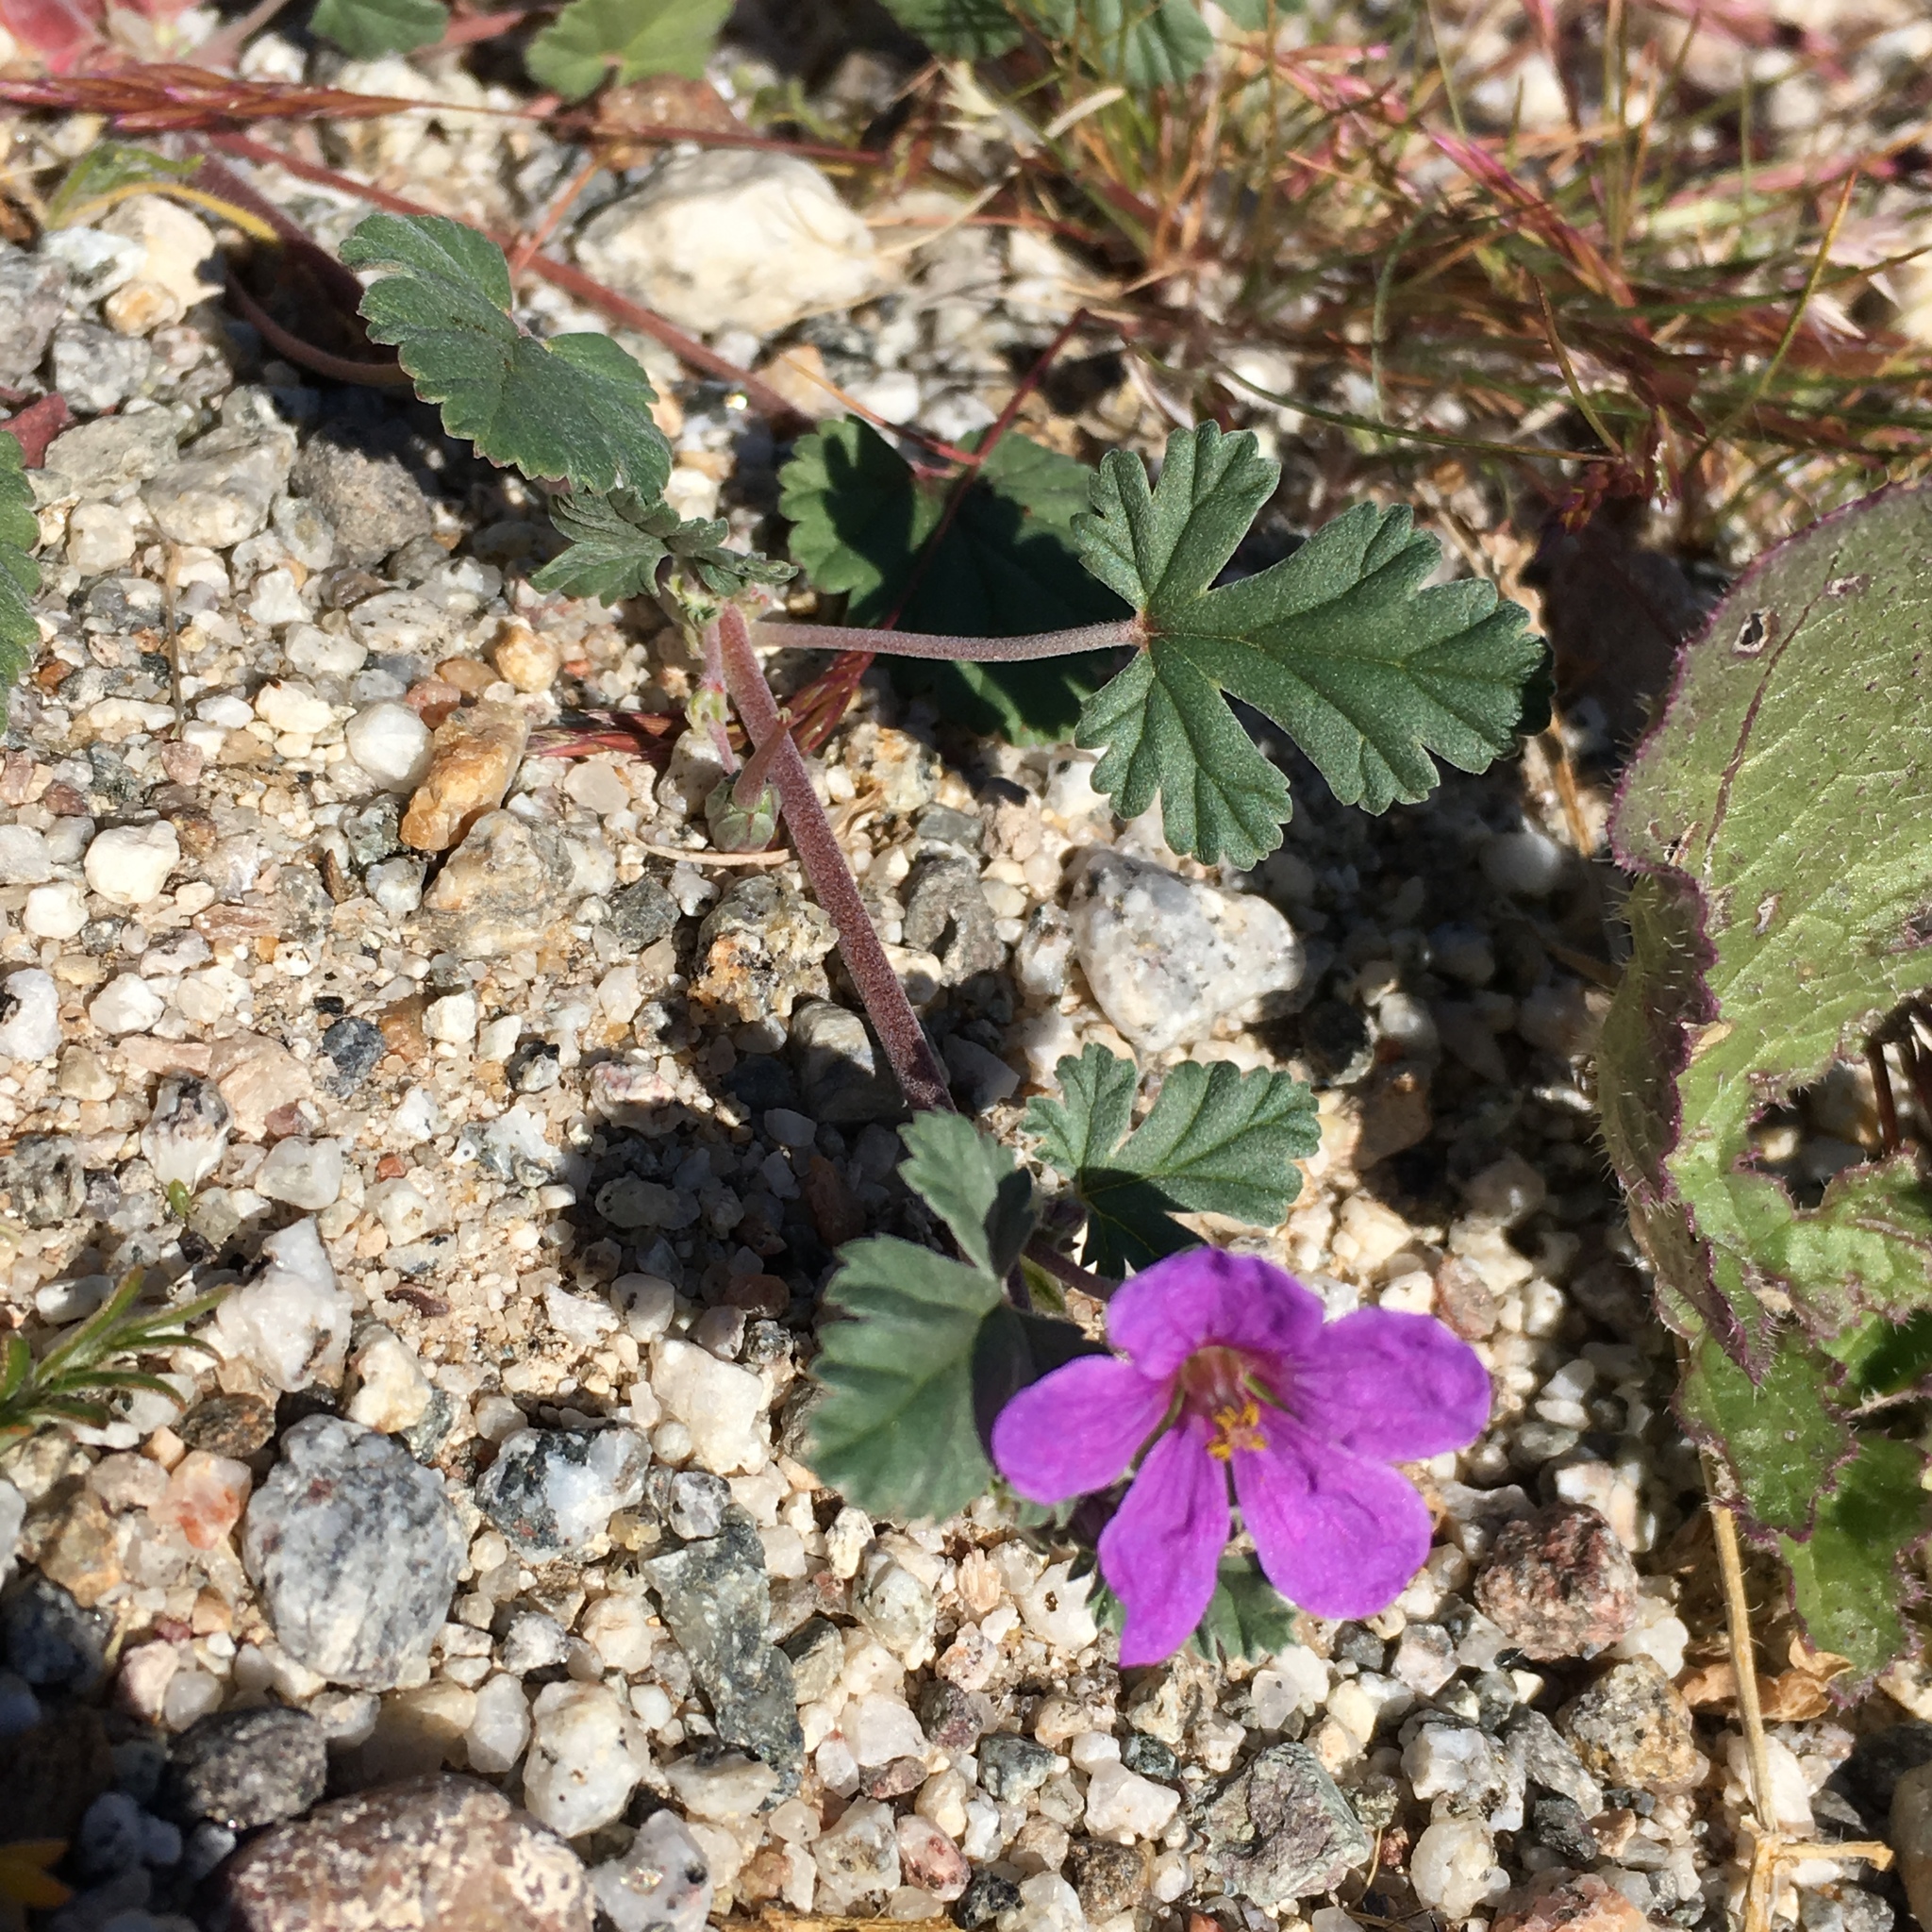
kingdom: Plantae
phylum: Tracheophyta
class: Magnoliopsida
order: Geraniales
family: Geraniaceae
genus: Erodium
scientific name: Erodium texanum
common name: Texas stork's-bill
